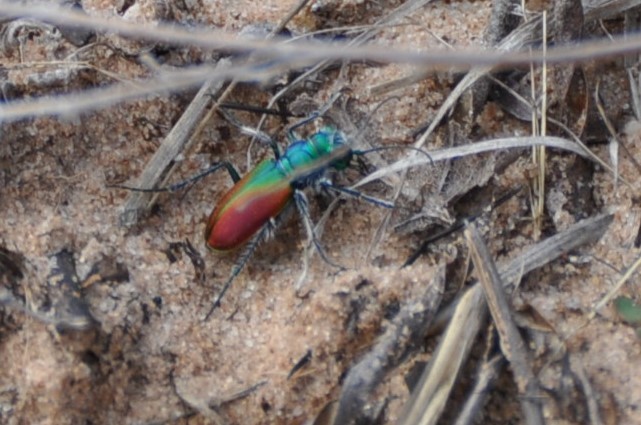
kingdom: Animalia
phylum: Arthropoda
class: Insecta
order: Coleoptera
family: Carabidae
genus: Cicindela
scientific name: Cicindela scutellaris
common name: Festive tiger beetle
